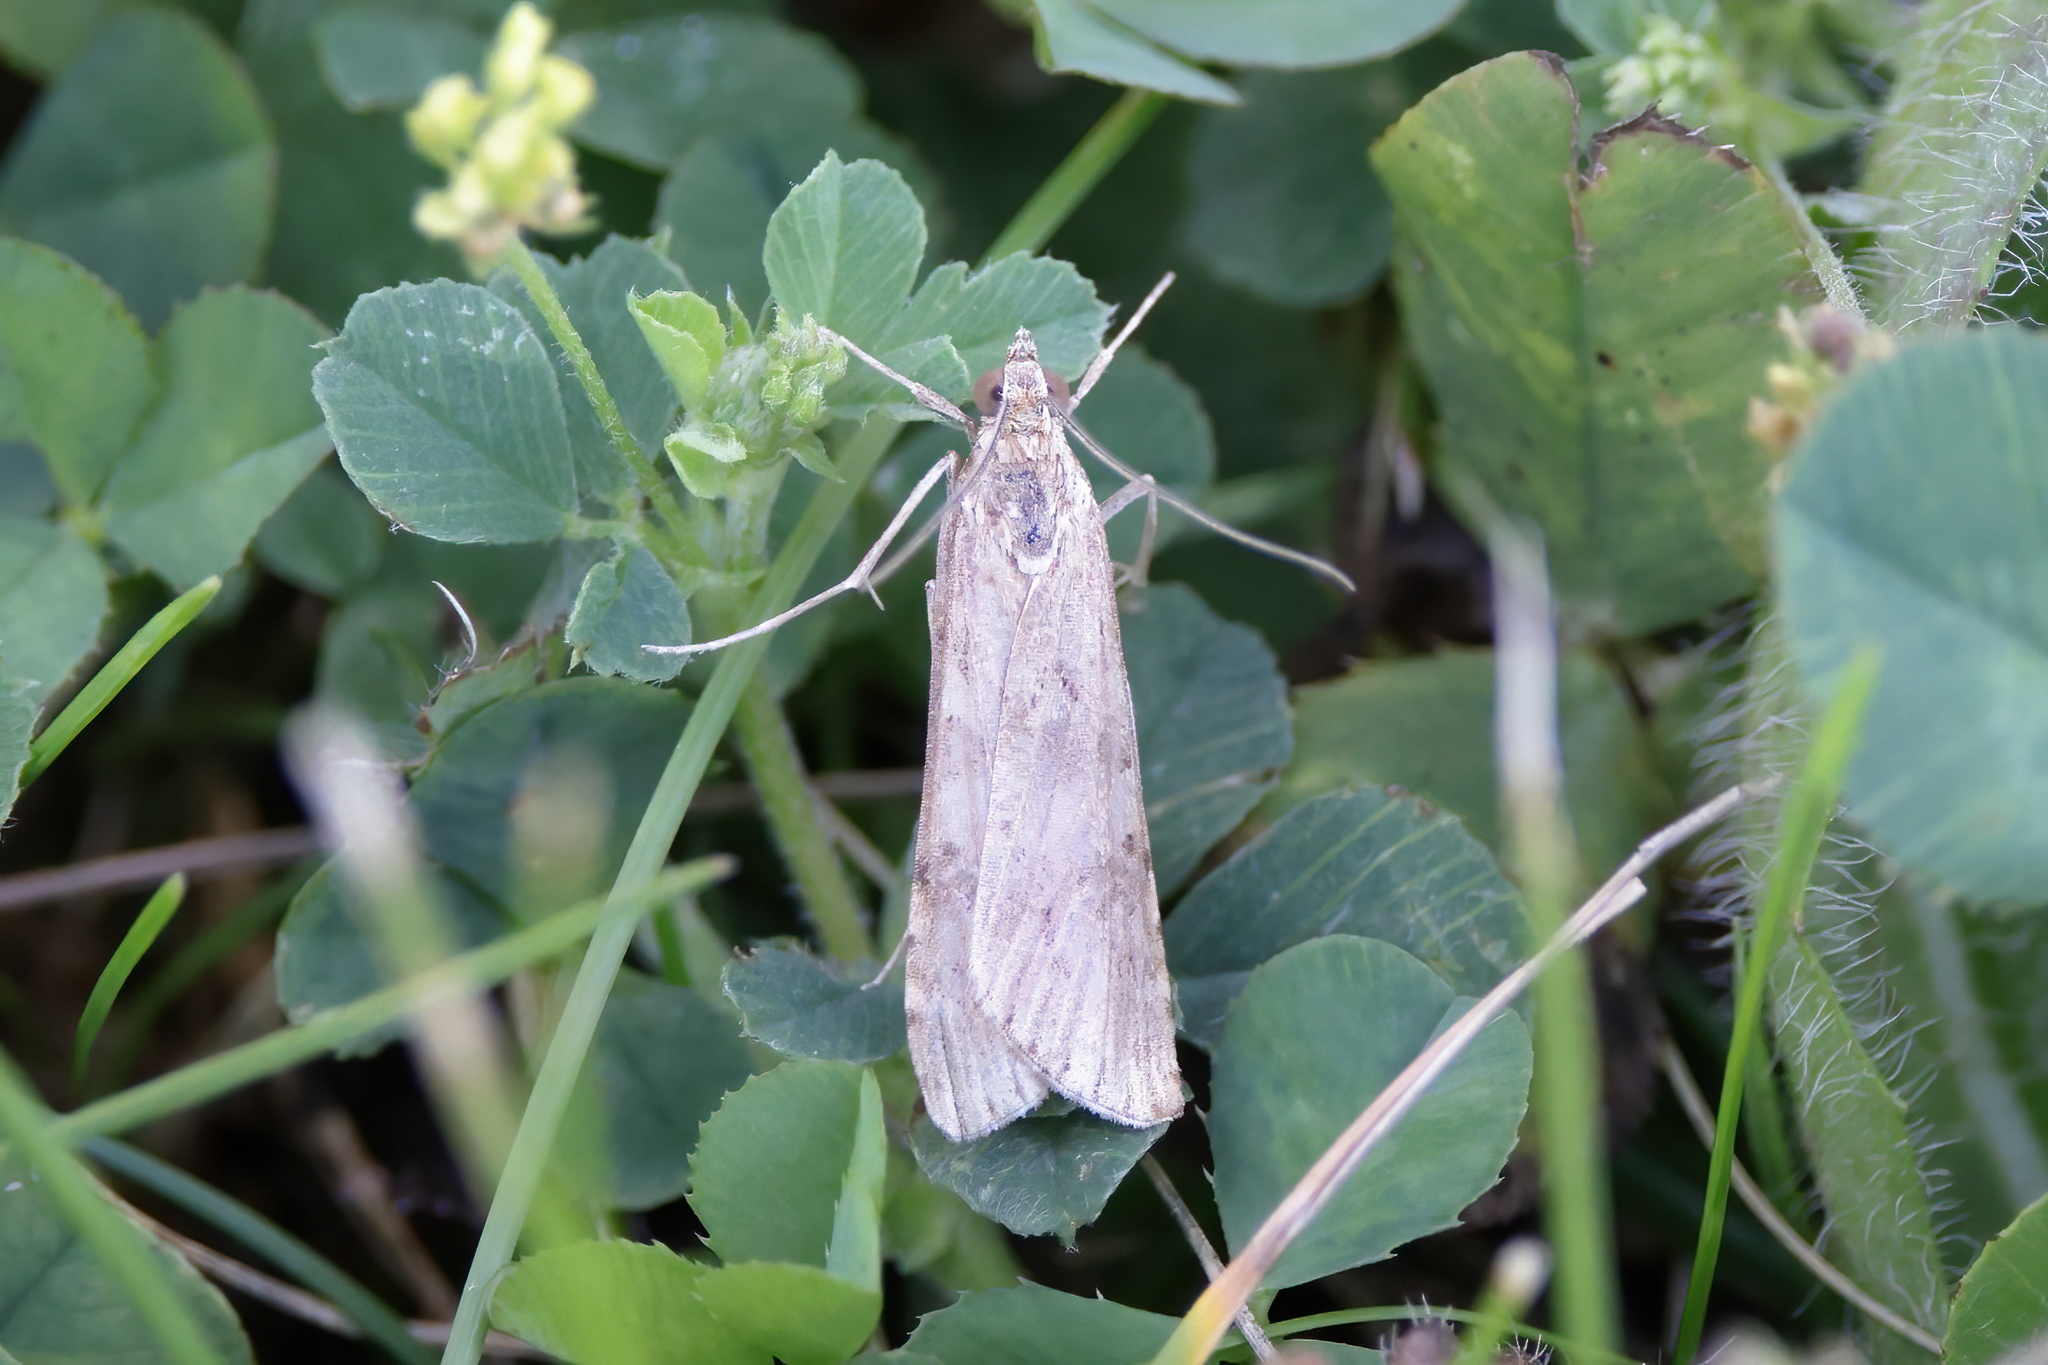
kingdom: Animalia
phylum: Arthropoda
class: Insecta
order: Lepidoptera
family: Crambidae
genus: Nomophila
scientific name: Nomophila nearctica
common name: American rush veneer
